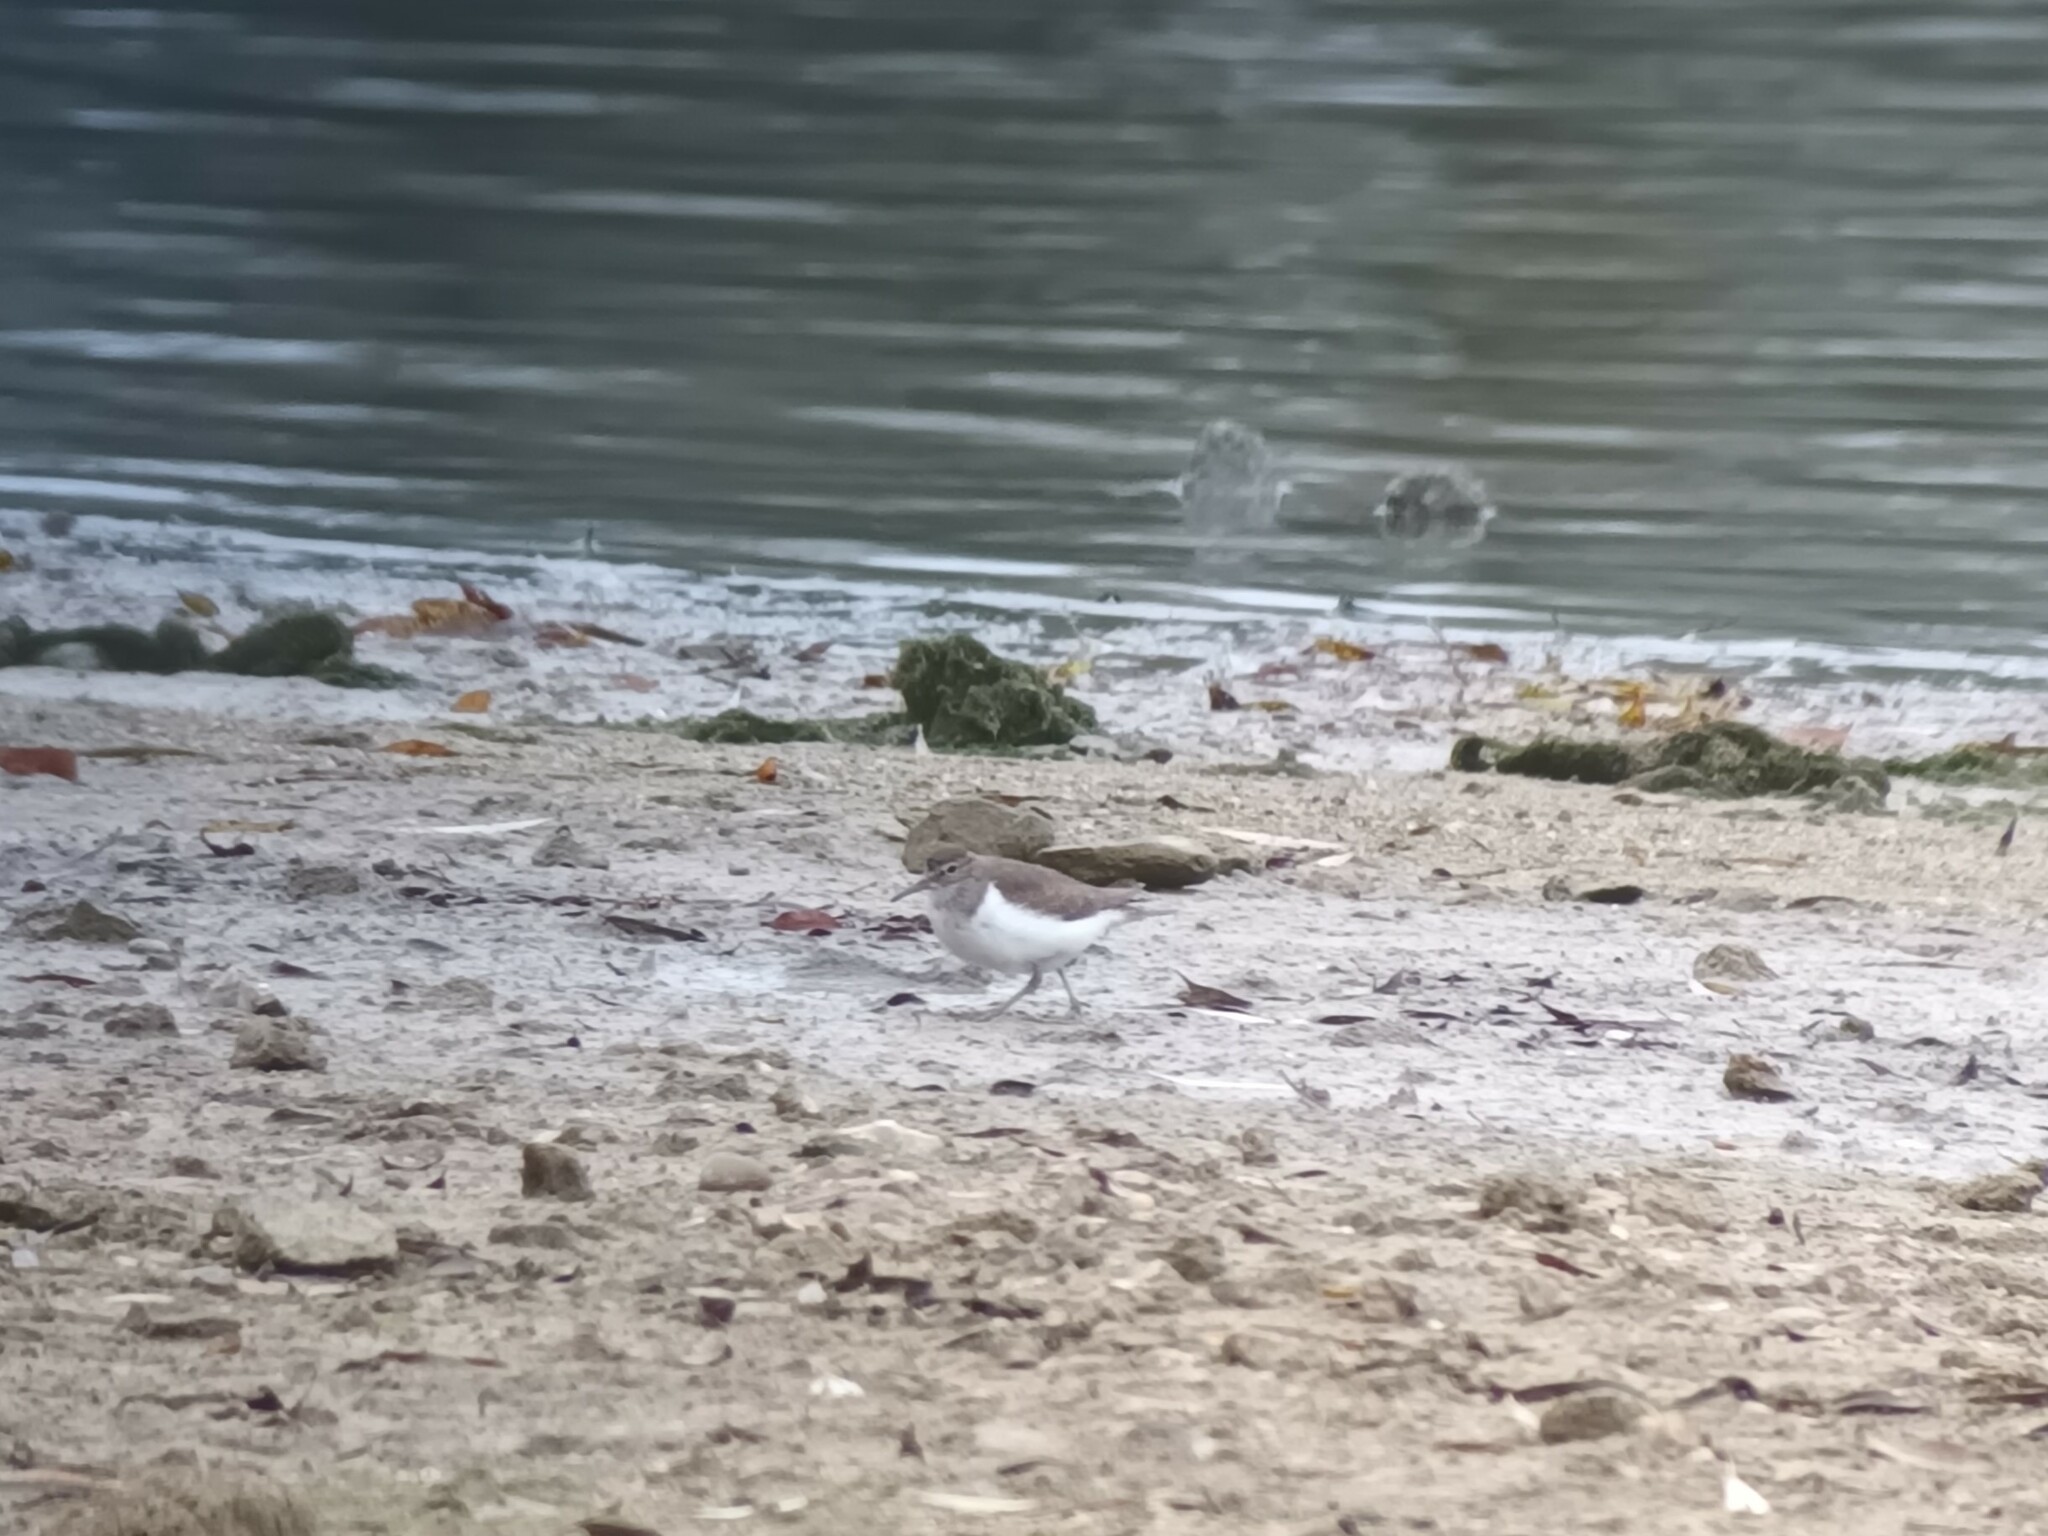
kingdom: Animalia
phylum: Chordata
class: Aves
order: Charadriiformes
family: Scolopacidae
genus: Actitis
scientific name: Actitis hypoleucos
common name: Common sandpiper
